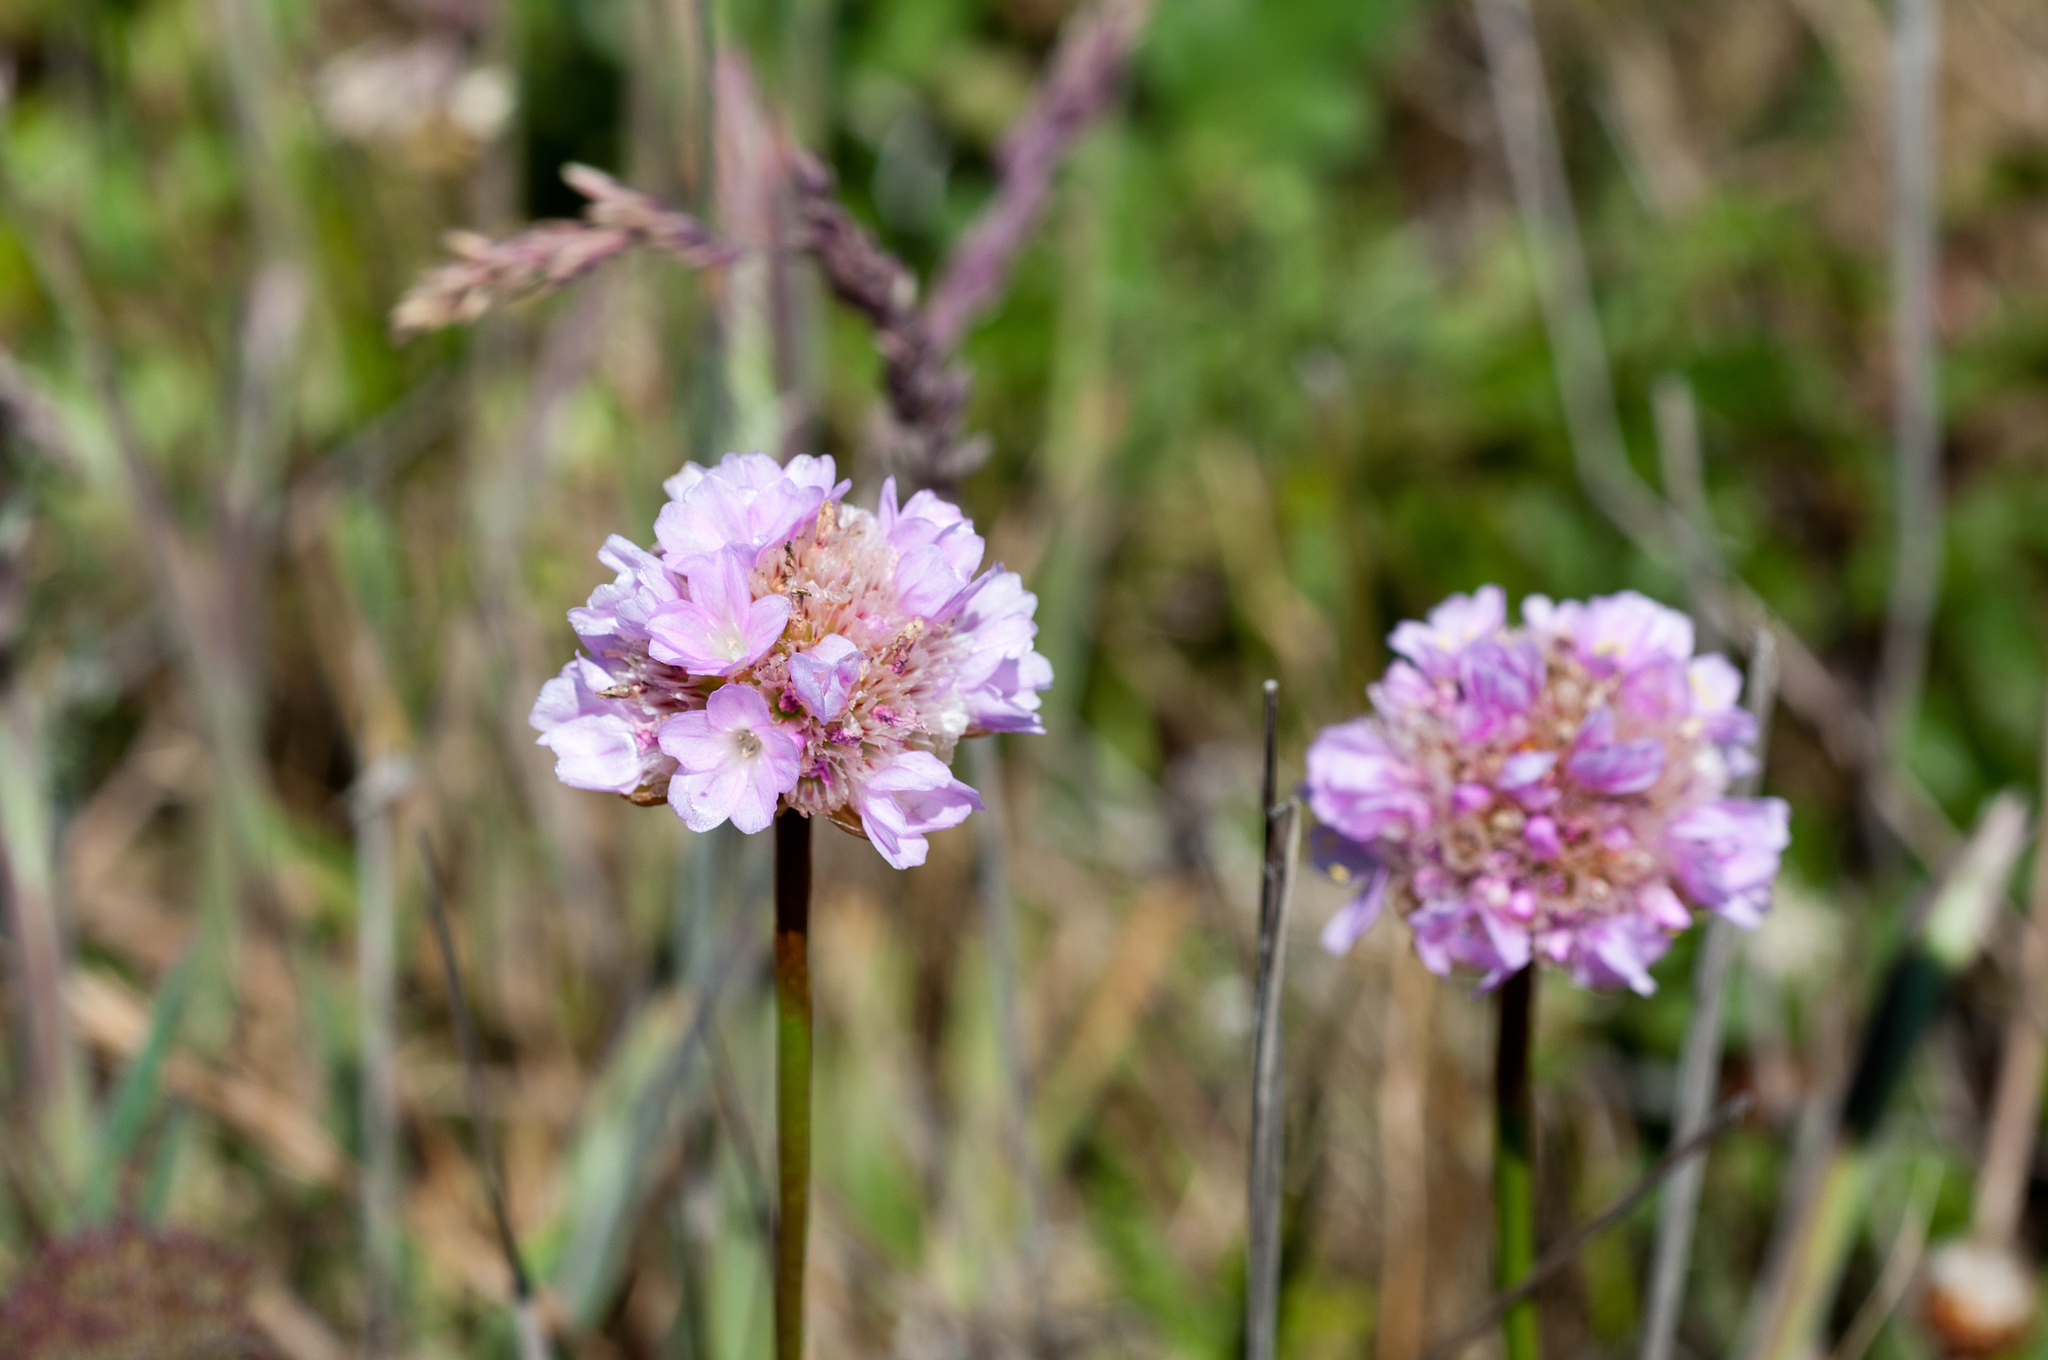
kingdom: Plantae
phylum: Tracheophyta
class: Magnoliopsida
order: Caryophyllales
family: Plumbaginaceae
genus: Armeria
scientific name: Armeria maritima
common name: Thrift
